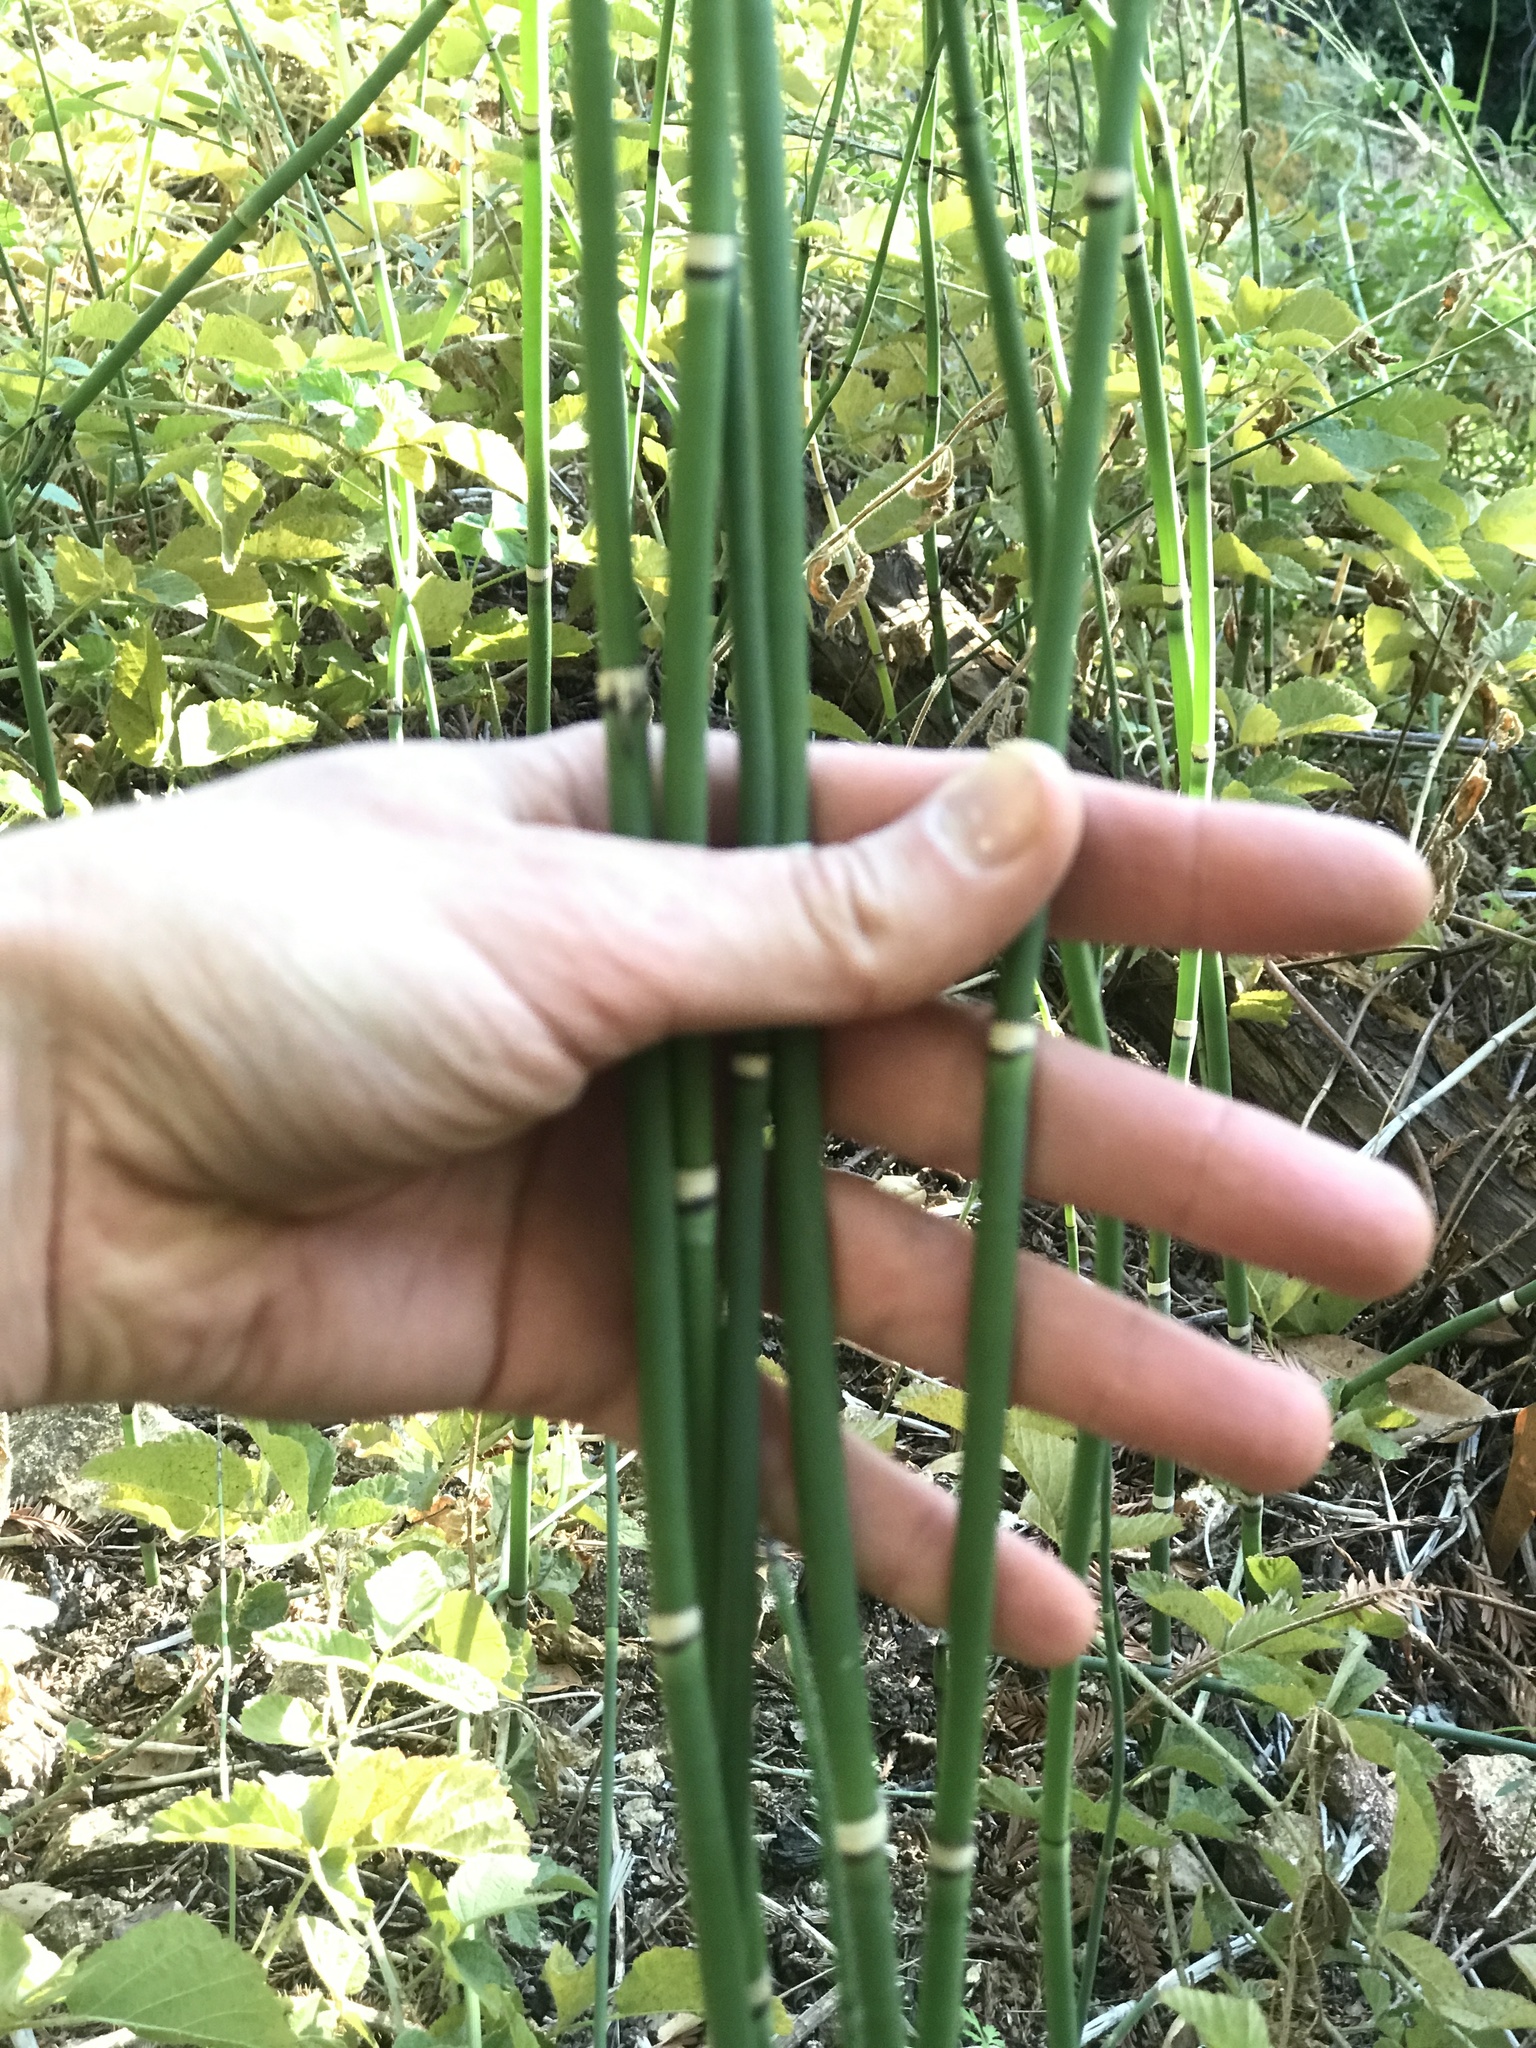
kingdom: Plantae
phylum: Tracheophyta
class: Polypodiopsida
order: Equisetales
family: Equisetaceae
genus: Equisetum
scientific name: Equisetum hyemale
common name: Rough horsetail
